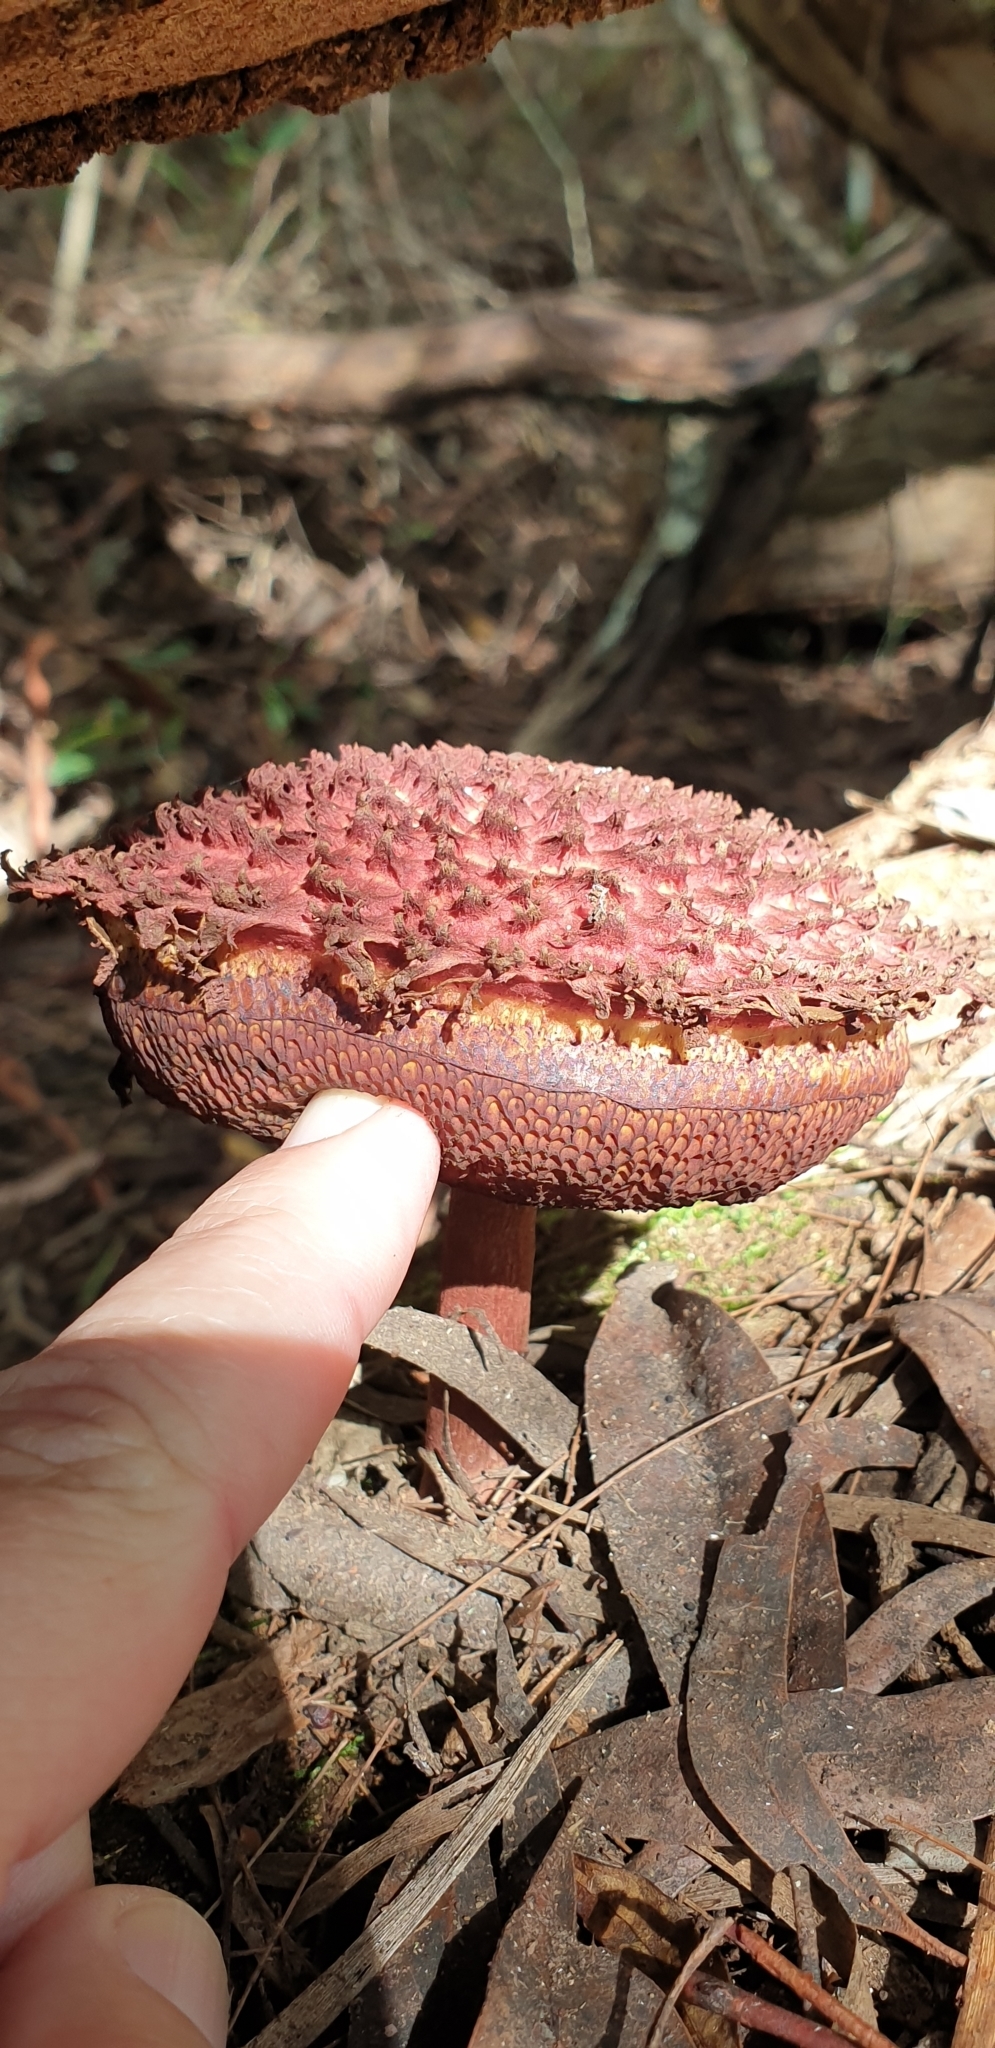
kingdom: Fungi
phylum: Basidiomycota
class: Agaricomycetes
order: Boletales
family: Boletaceae
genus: Boletellus
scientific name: Boletellus emodensis
